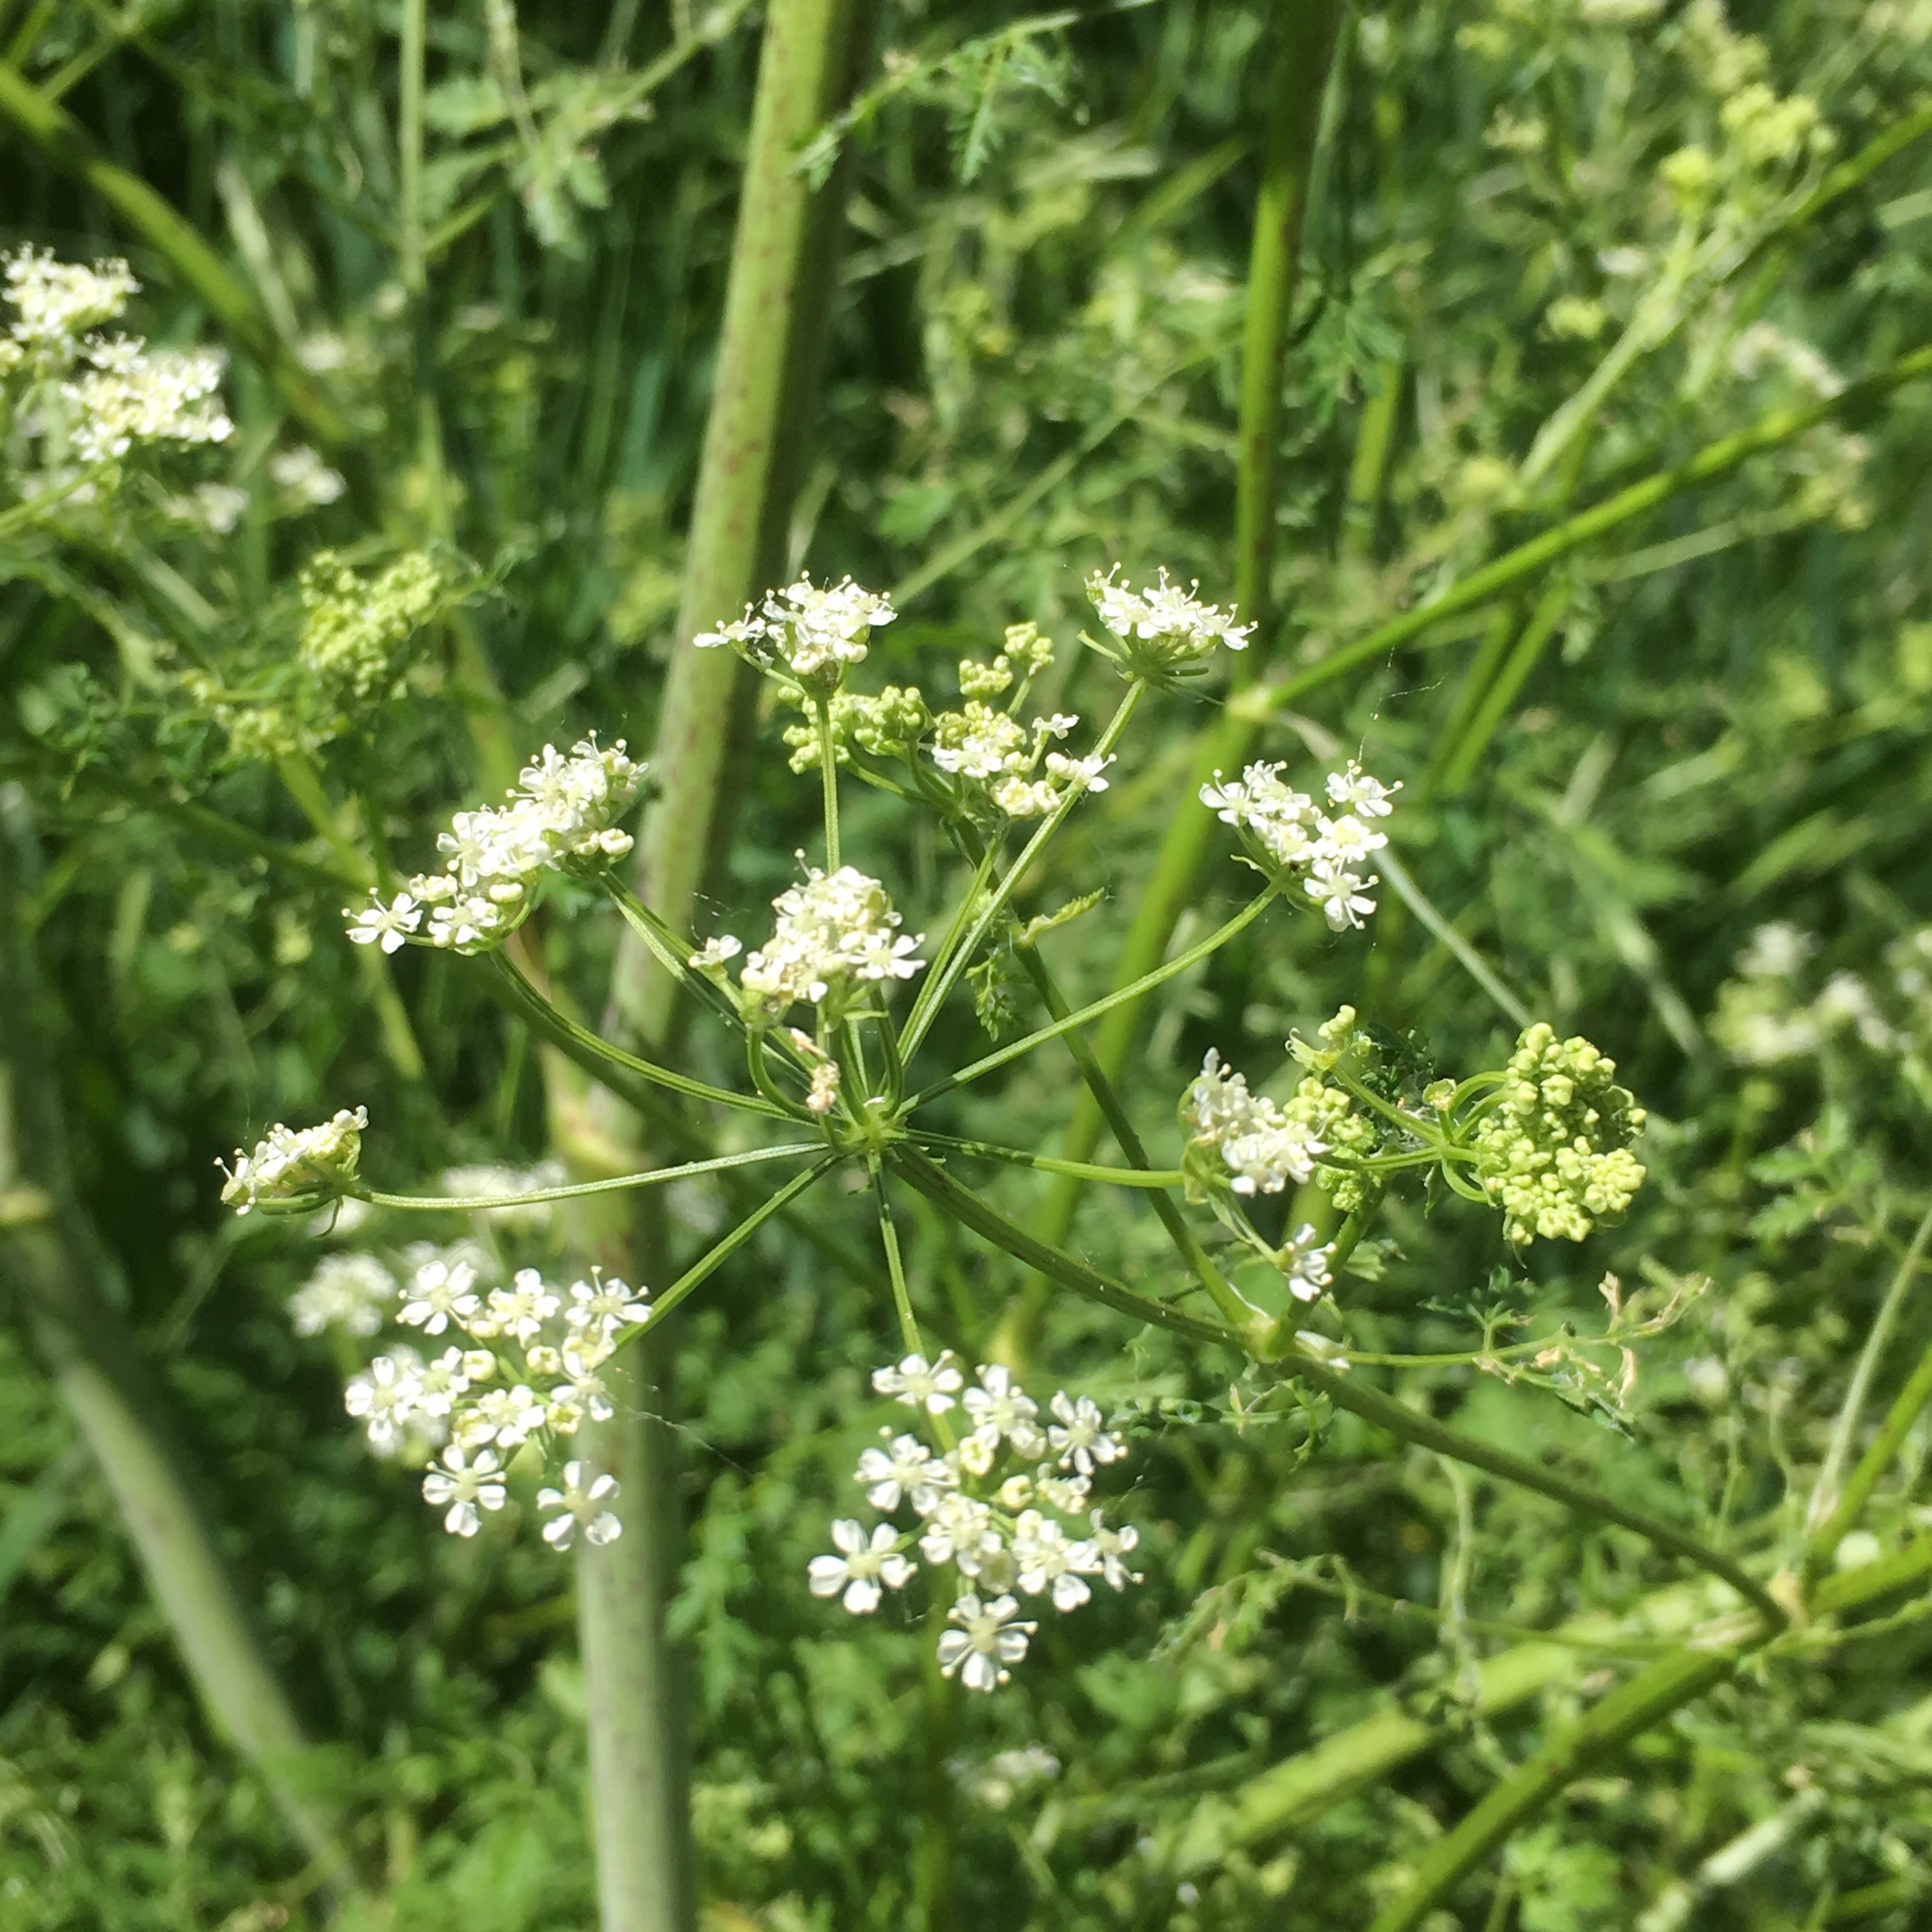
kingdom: Plantae
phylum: Tracheophyta
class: Magnoliopsida
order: Apiales
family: Apiaceae
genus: Conium
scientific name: Conium maculatum
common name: Hemlock
